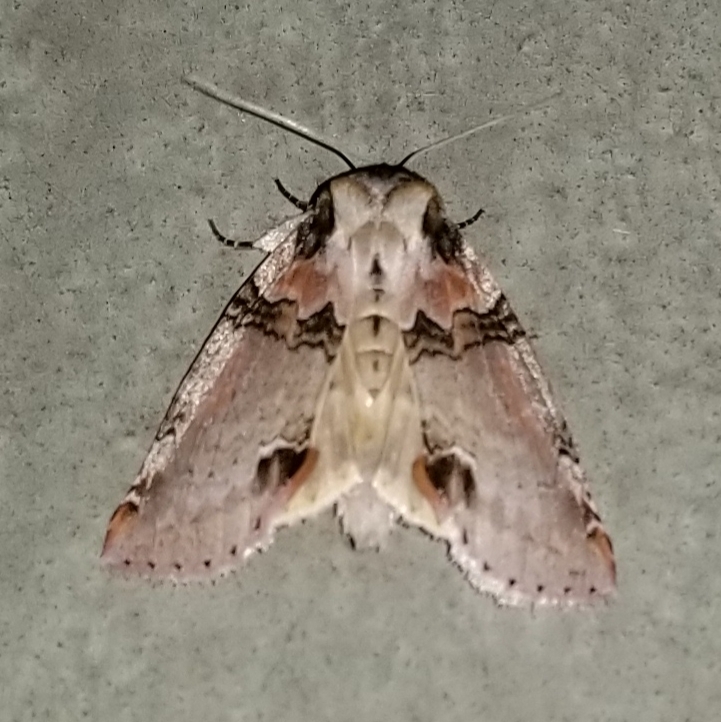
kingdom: Animalia
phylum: Arthropoda
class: Insecta
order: Lepidoptera
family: Drepanidae
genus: Pseudothyatira
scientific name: Pseudothyatira cymatophoroides
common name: Tufted thyatirid moth
